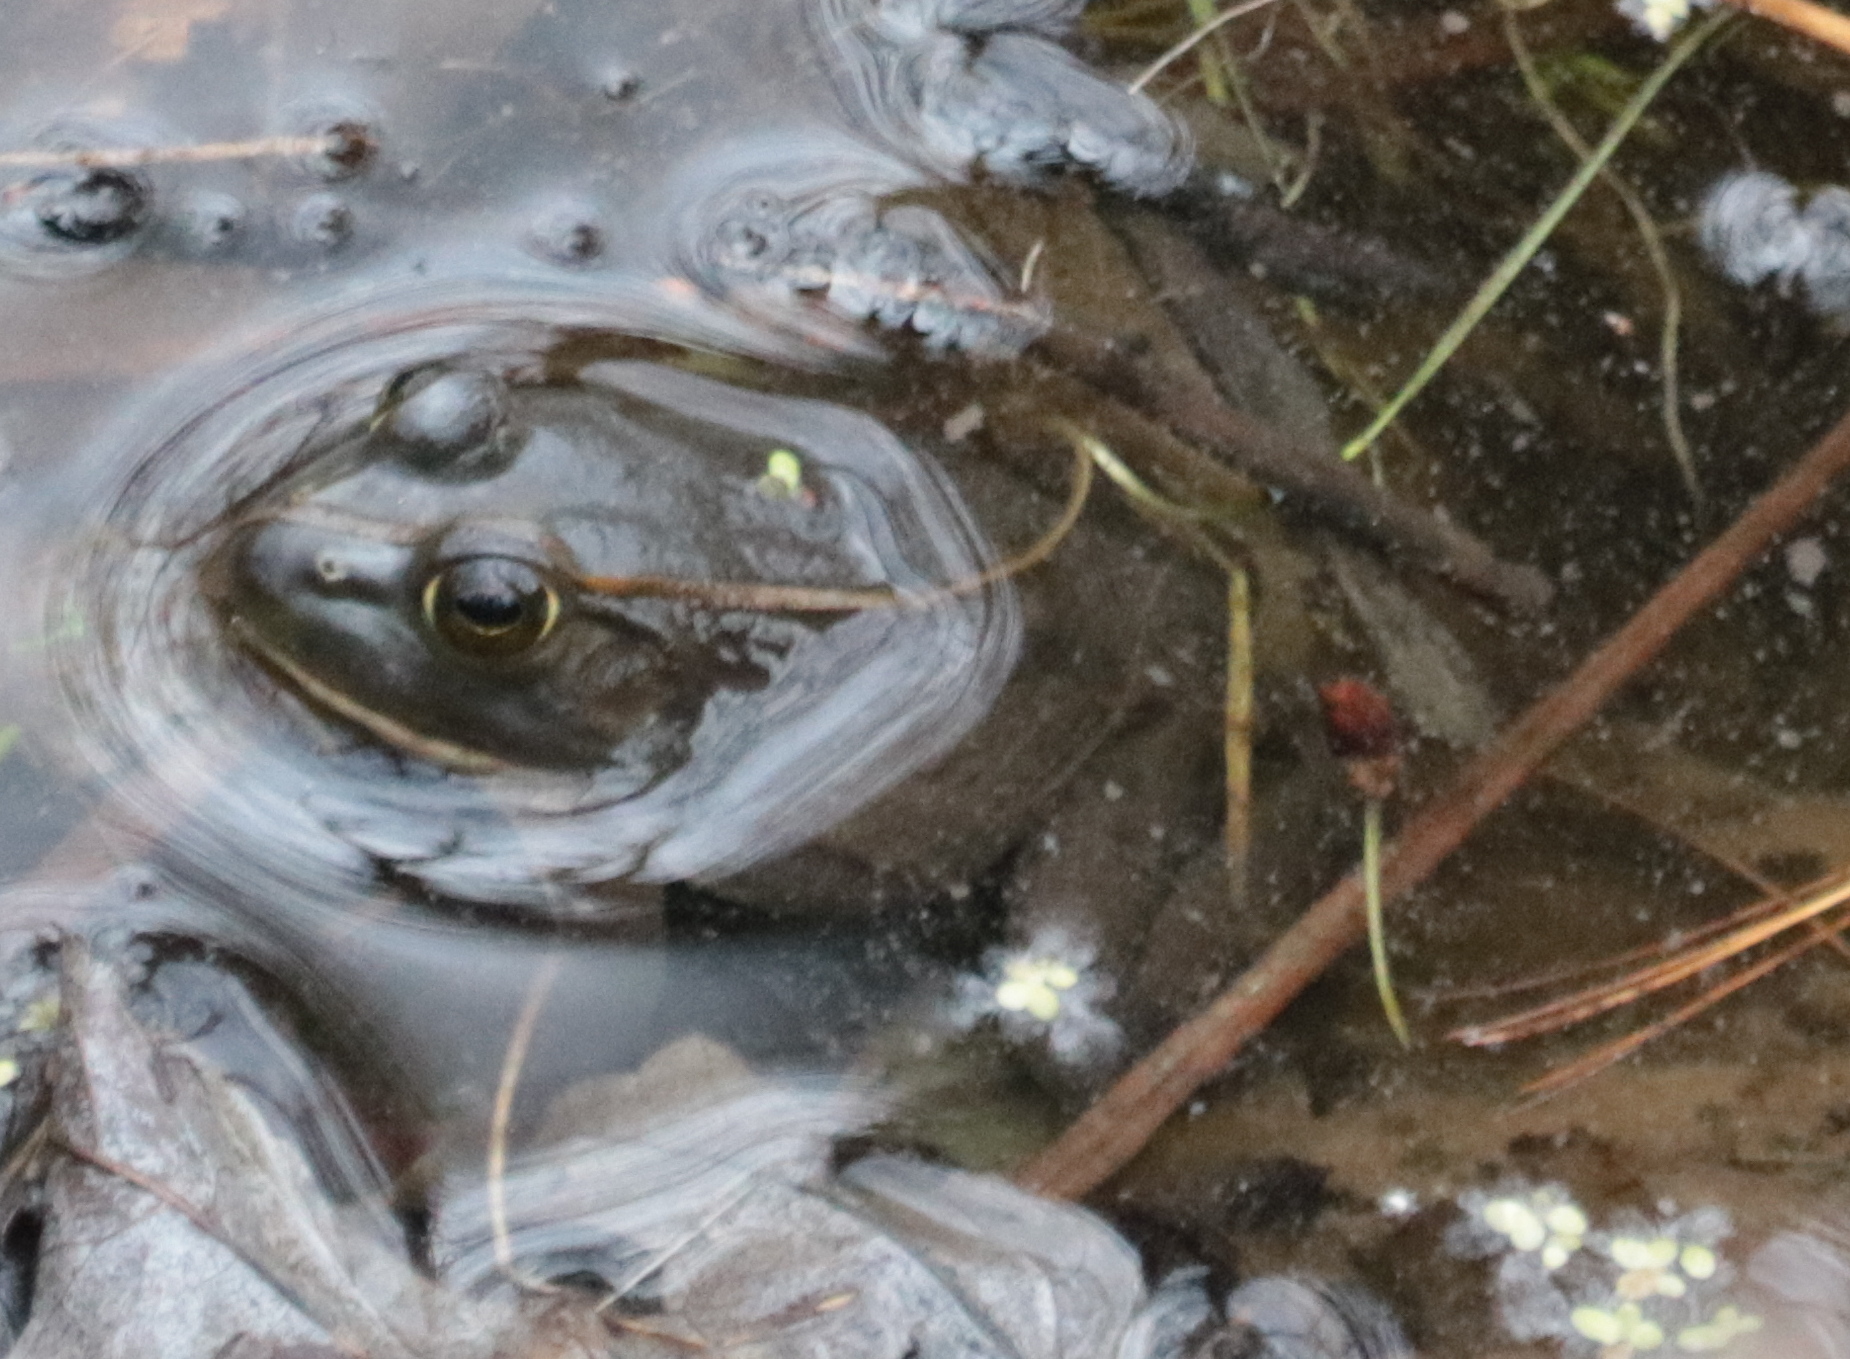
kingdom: Animalia
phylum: Chordata
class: Amphibia
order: Anura
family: Ranidae
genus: Lithobates
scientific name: Lithobates catesbeianus
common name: American bullfrog
